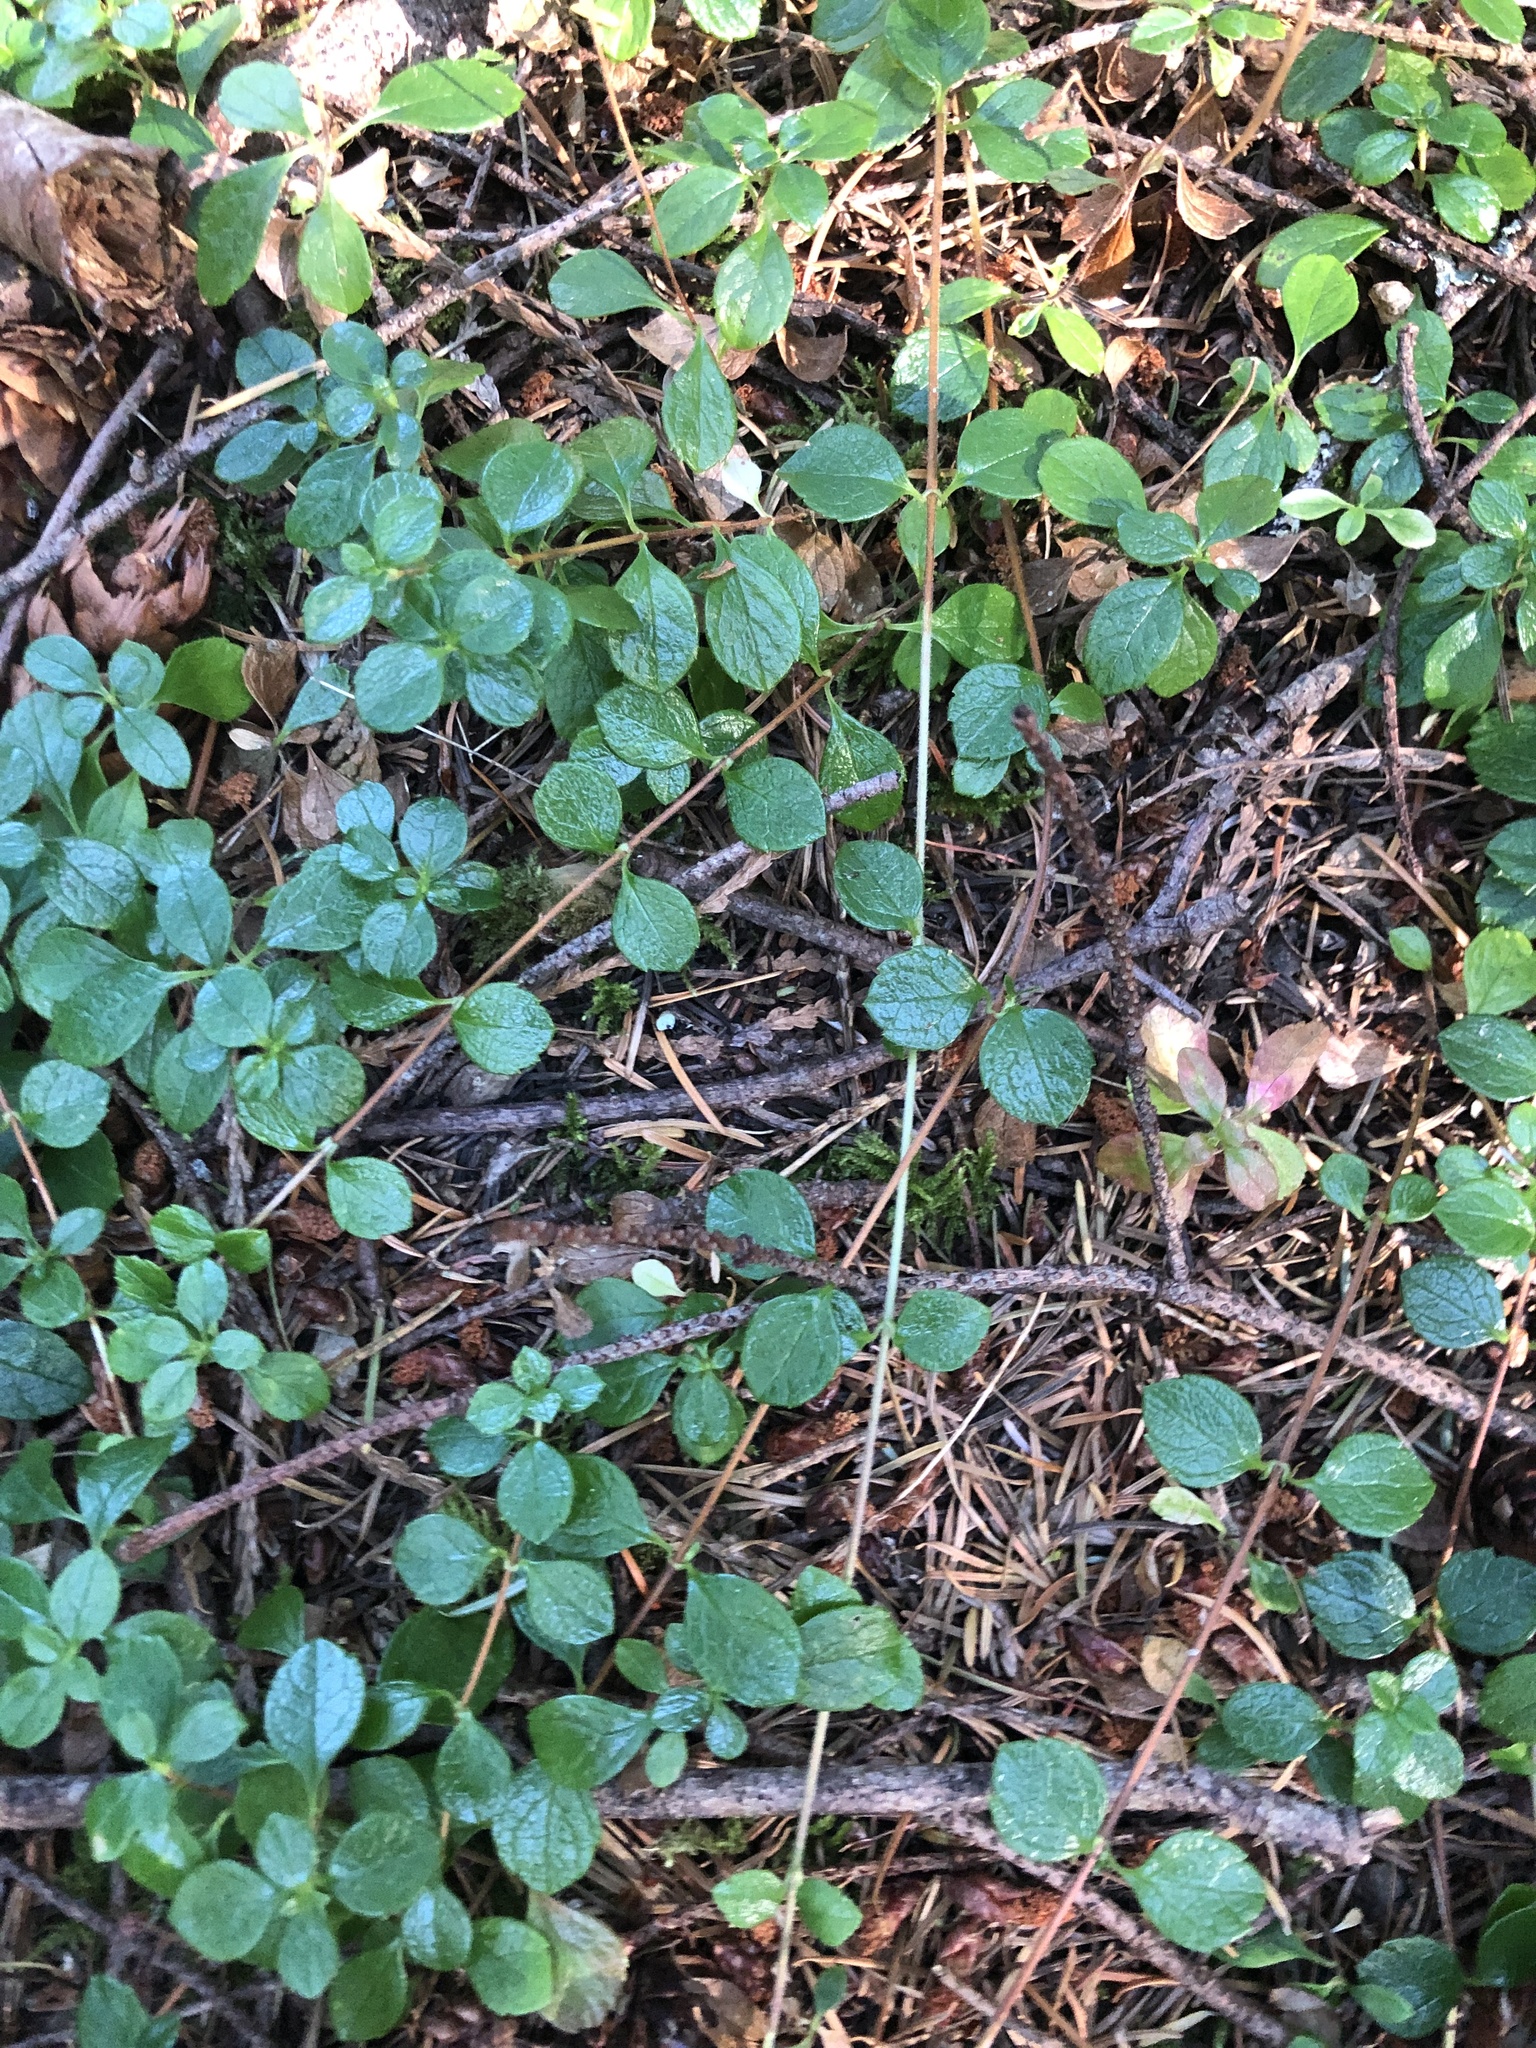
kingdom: Plantae
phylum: Tracheophyta
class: Magnoliopsida
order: Dipsacales
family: Caprifoliaceae
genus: Linnaea
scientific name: Linnaea borealis
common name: Twinflower
